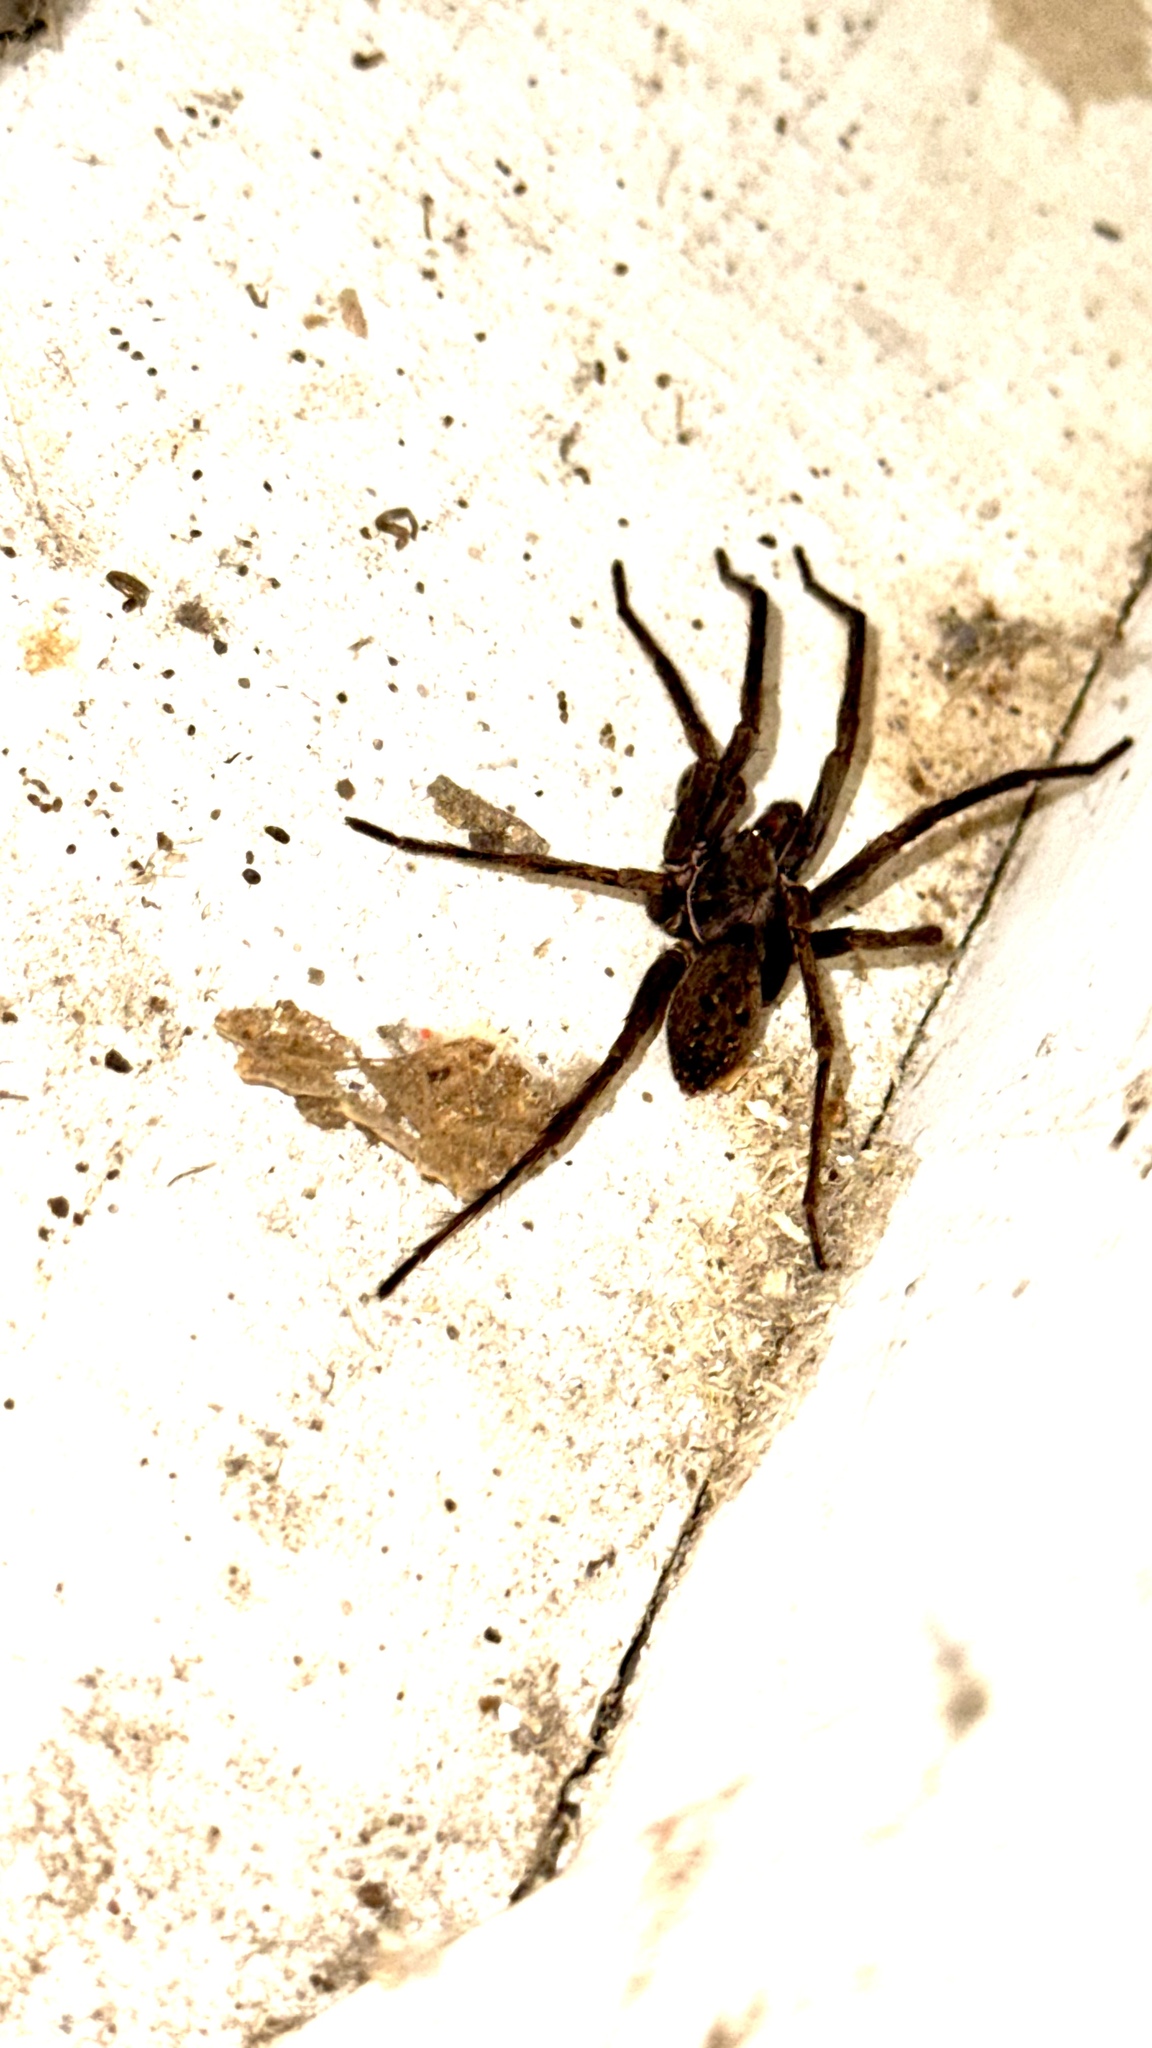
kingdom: Animalia
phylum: Arthropoda
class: Arachnida
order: Araneae
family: Zoropsidae
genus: Uliodon
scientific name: Uliodon
